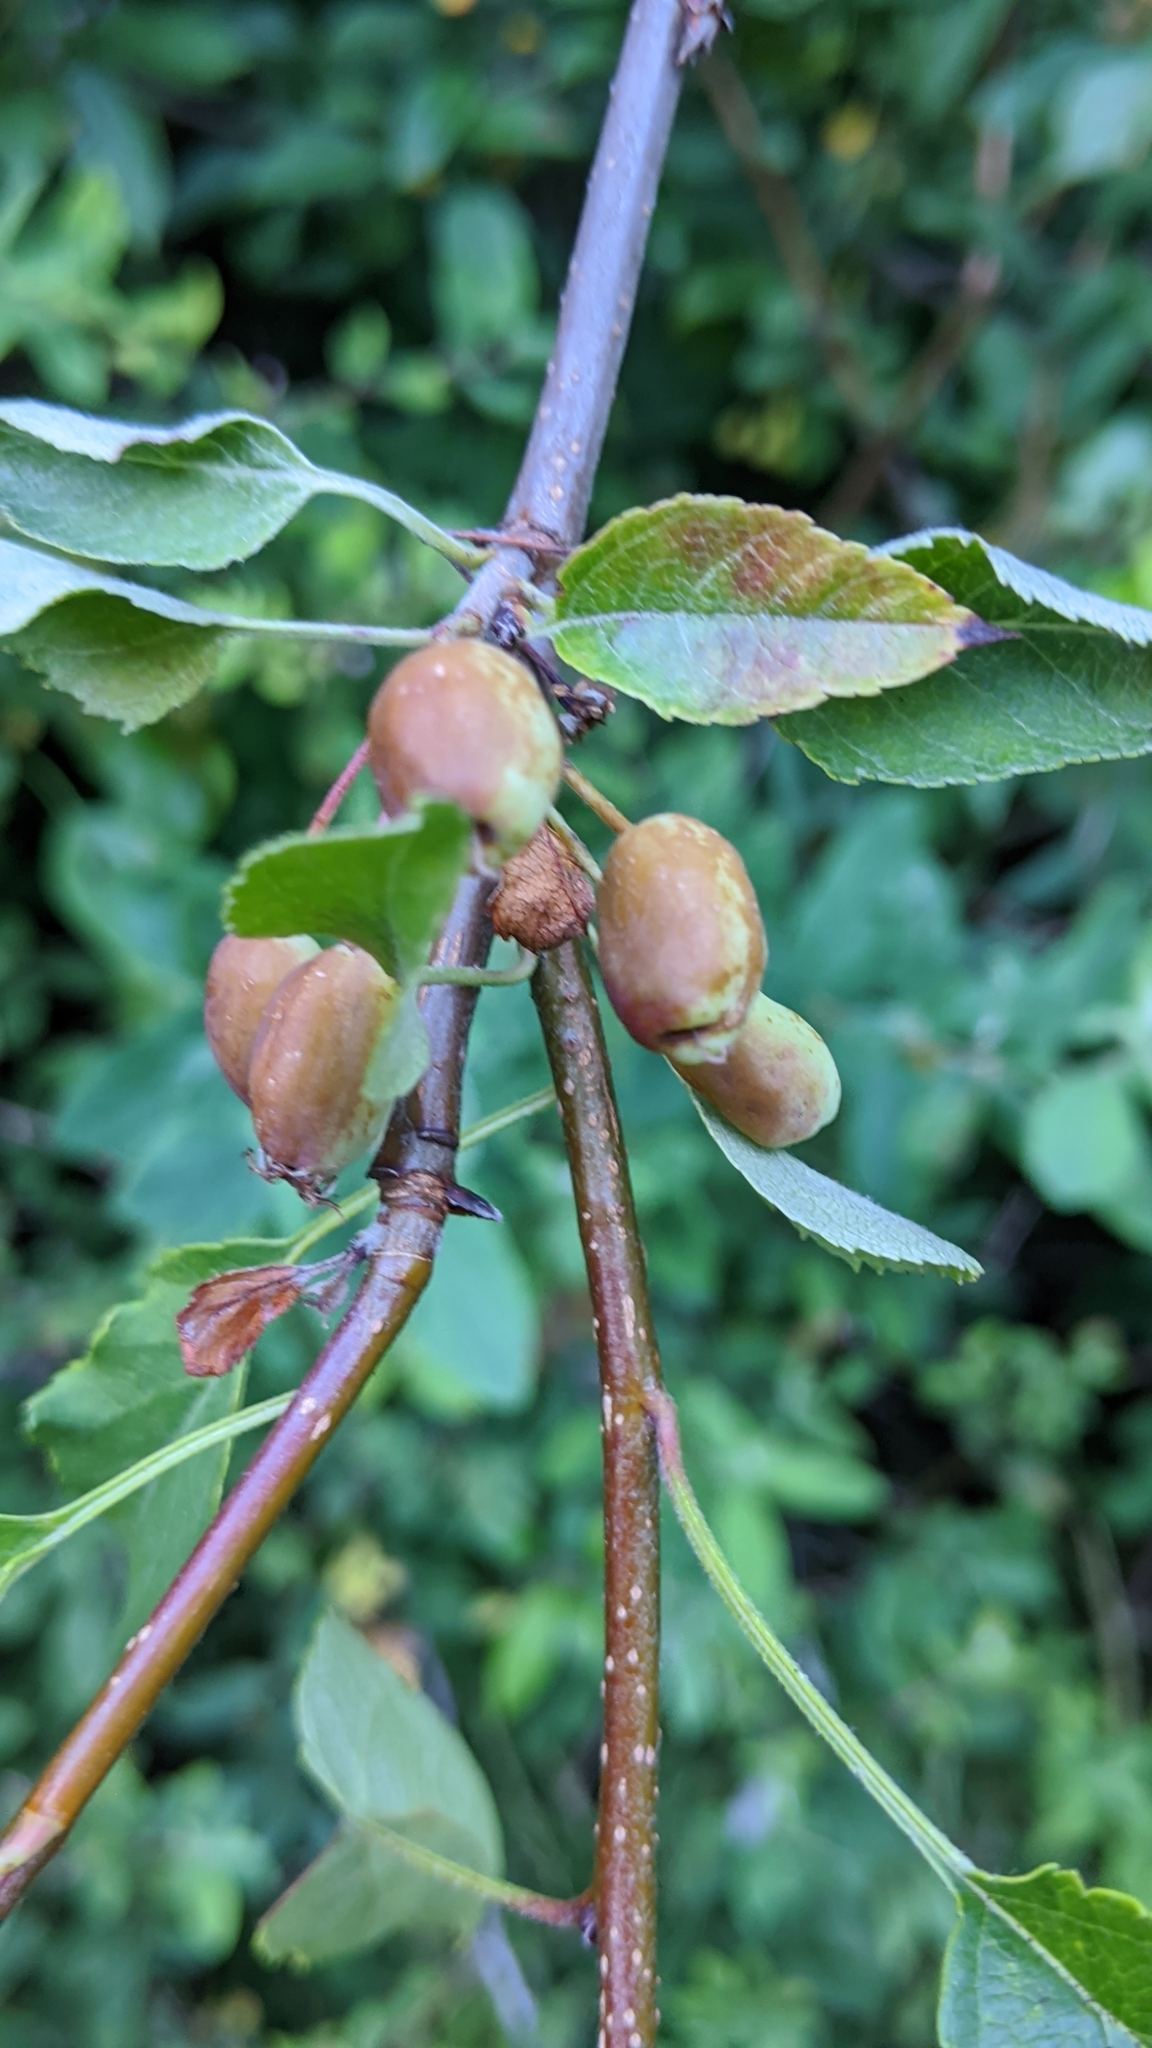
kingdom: Plantae
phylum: Tracheophyta
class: Magnoliopsida
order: Rosales
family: Rosaceae
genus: Malus
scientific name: Malus fusca
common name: Oregon crab apple
